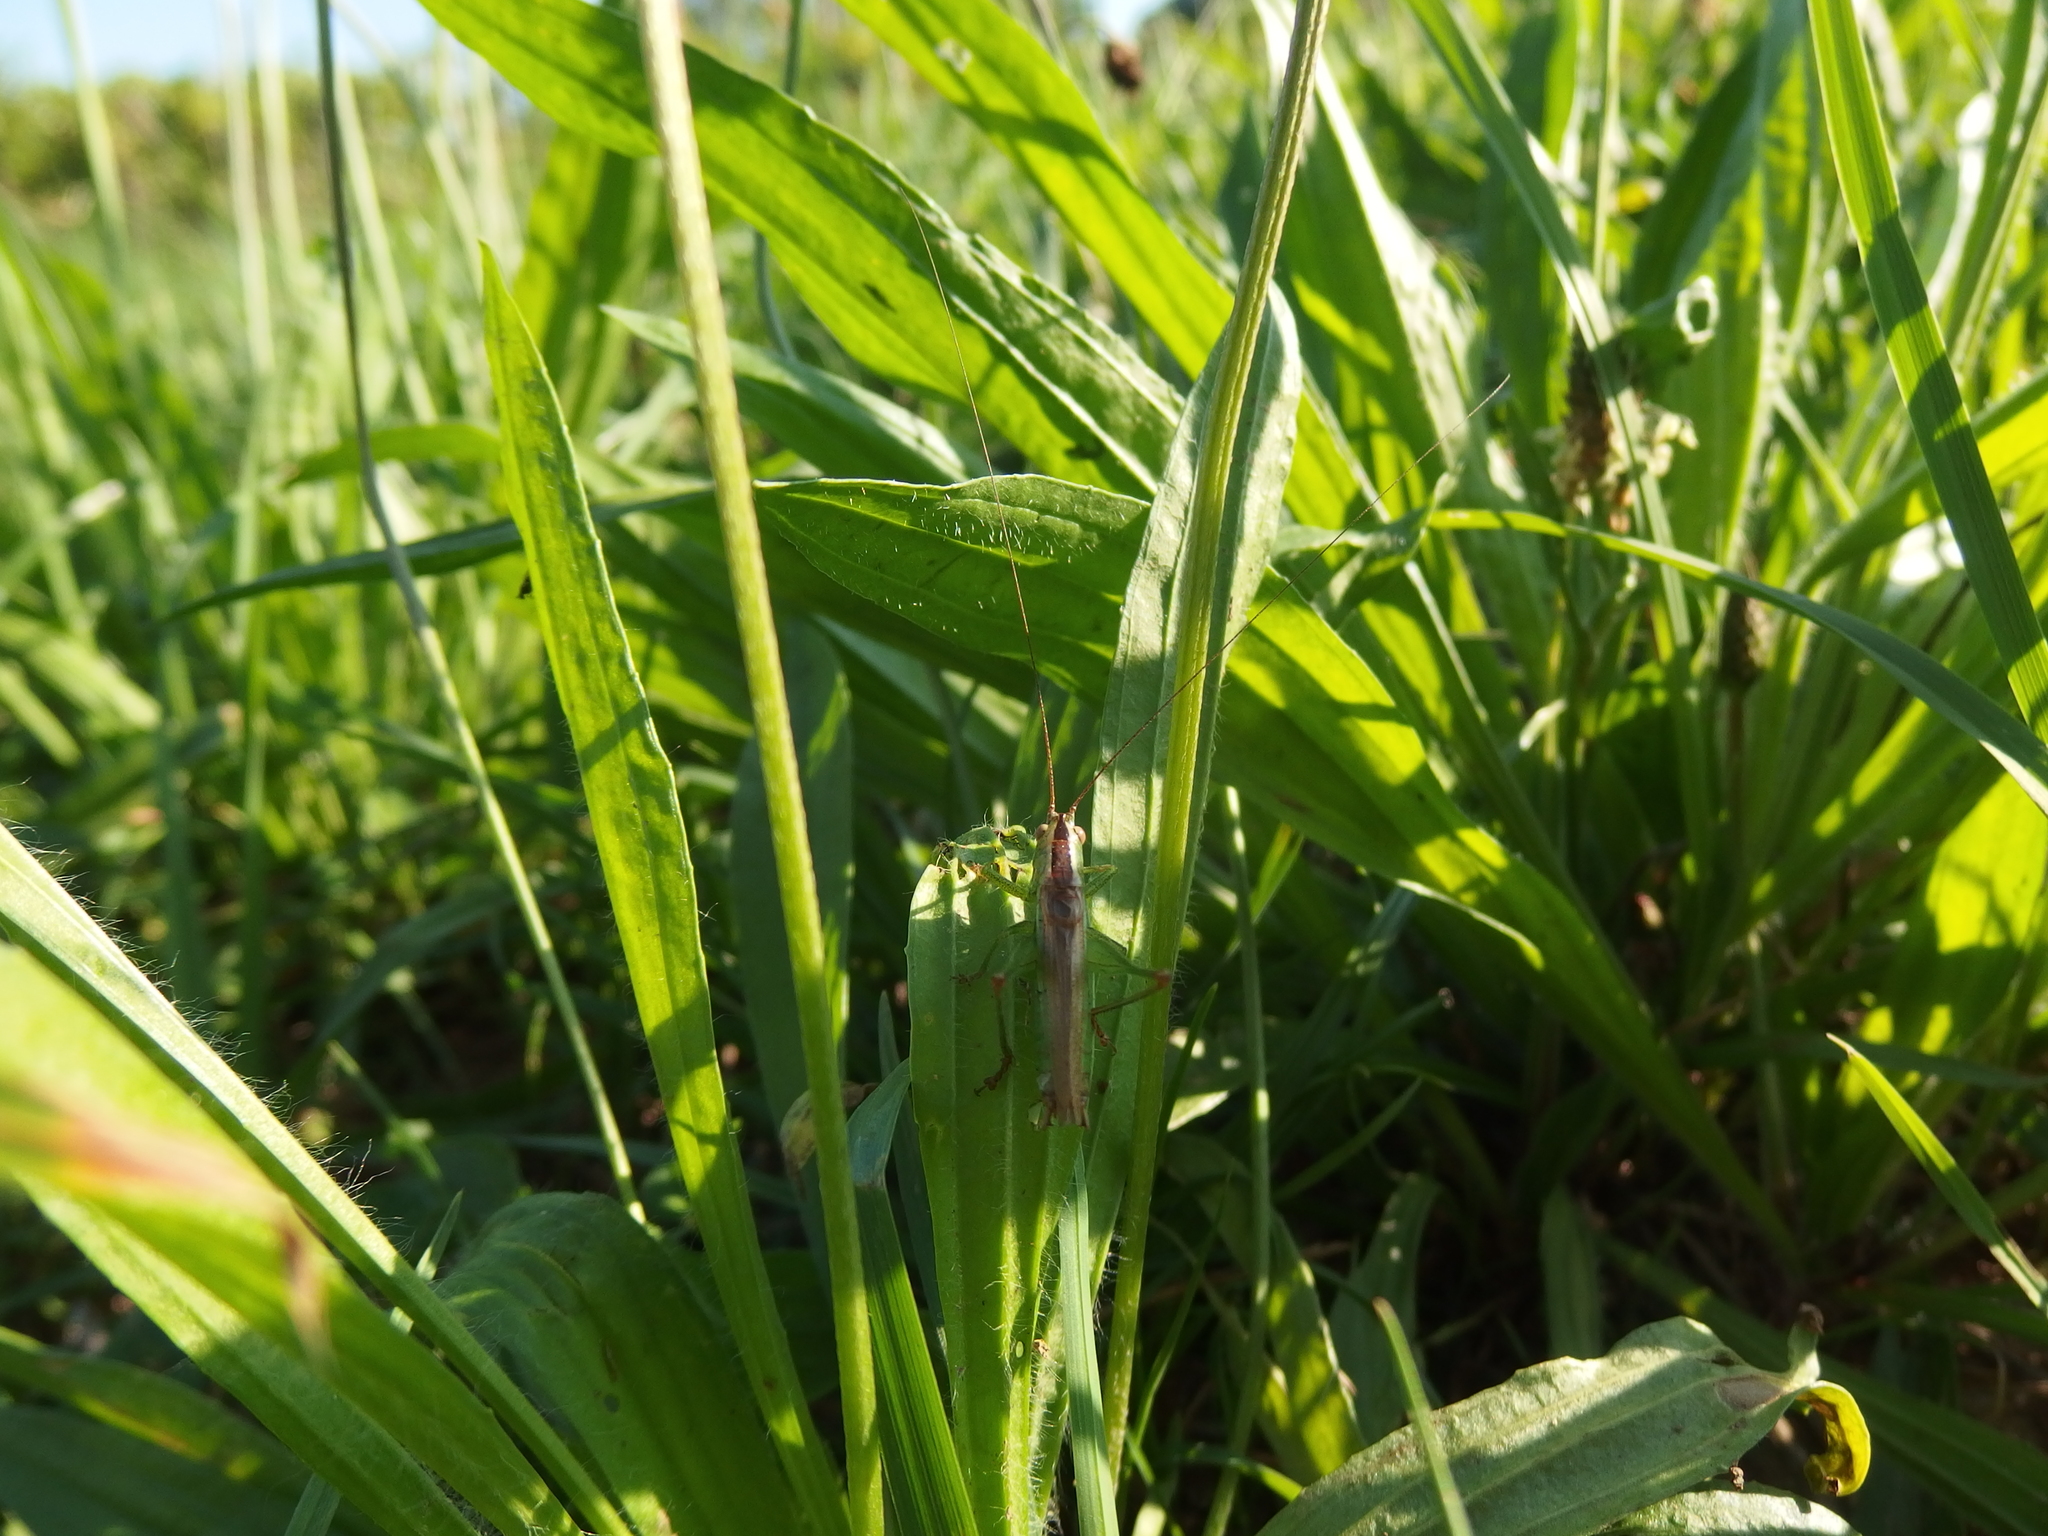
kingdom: Animalia
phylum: Arthropoda
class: Insecta
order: Orthoptera
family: Tettigoniidae
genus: Conocephalus
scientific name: Conocephalus fuscus
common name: Long-winged conehead
